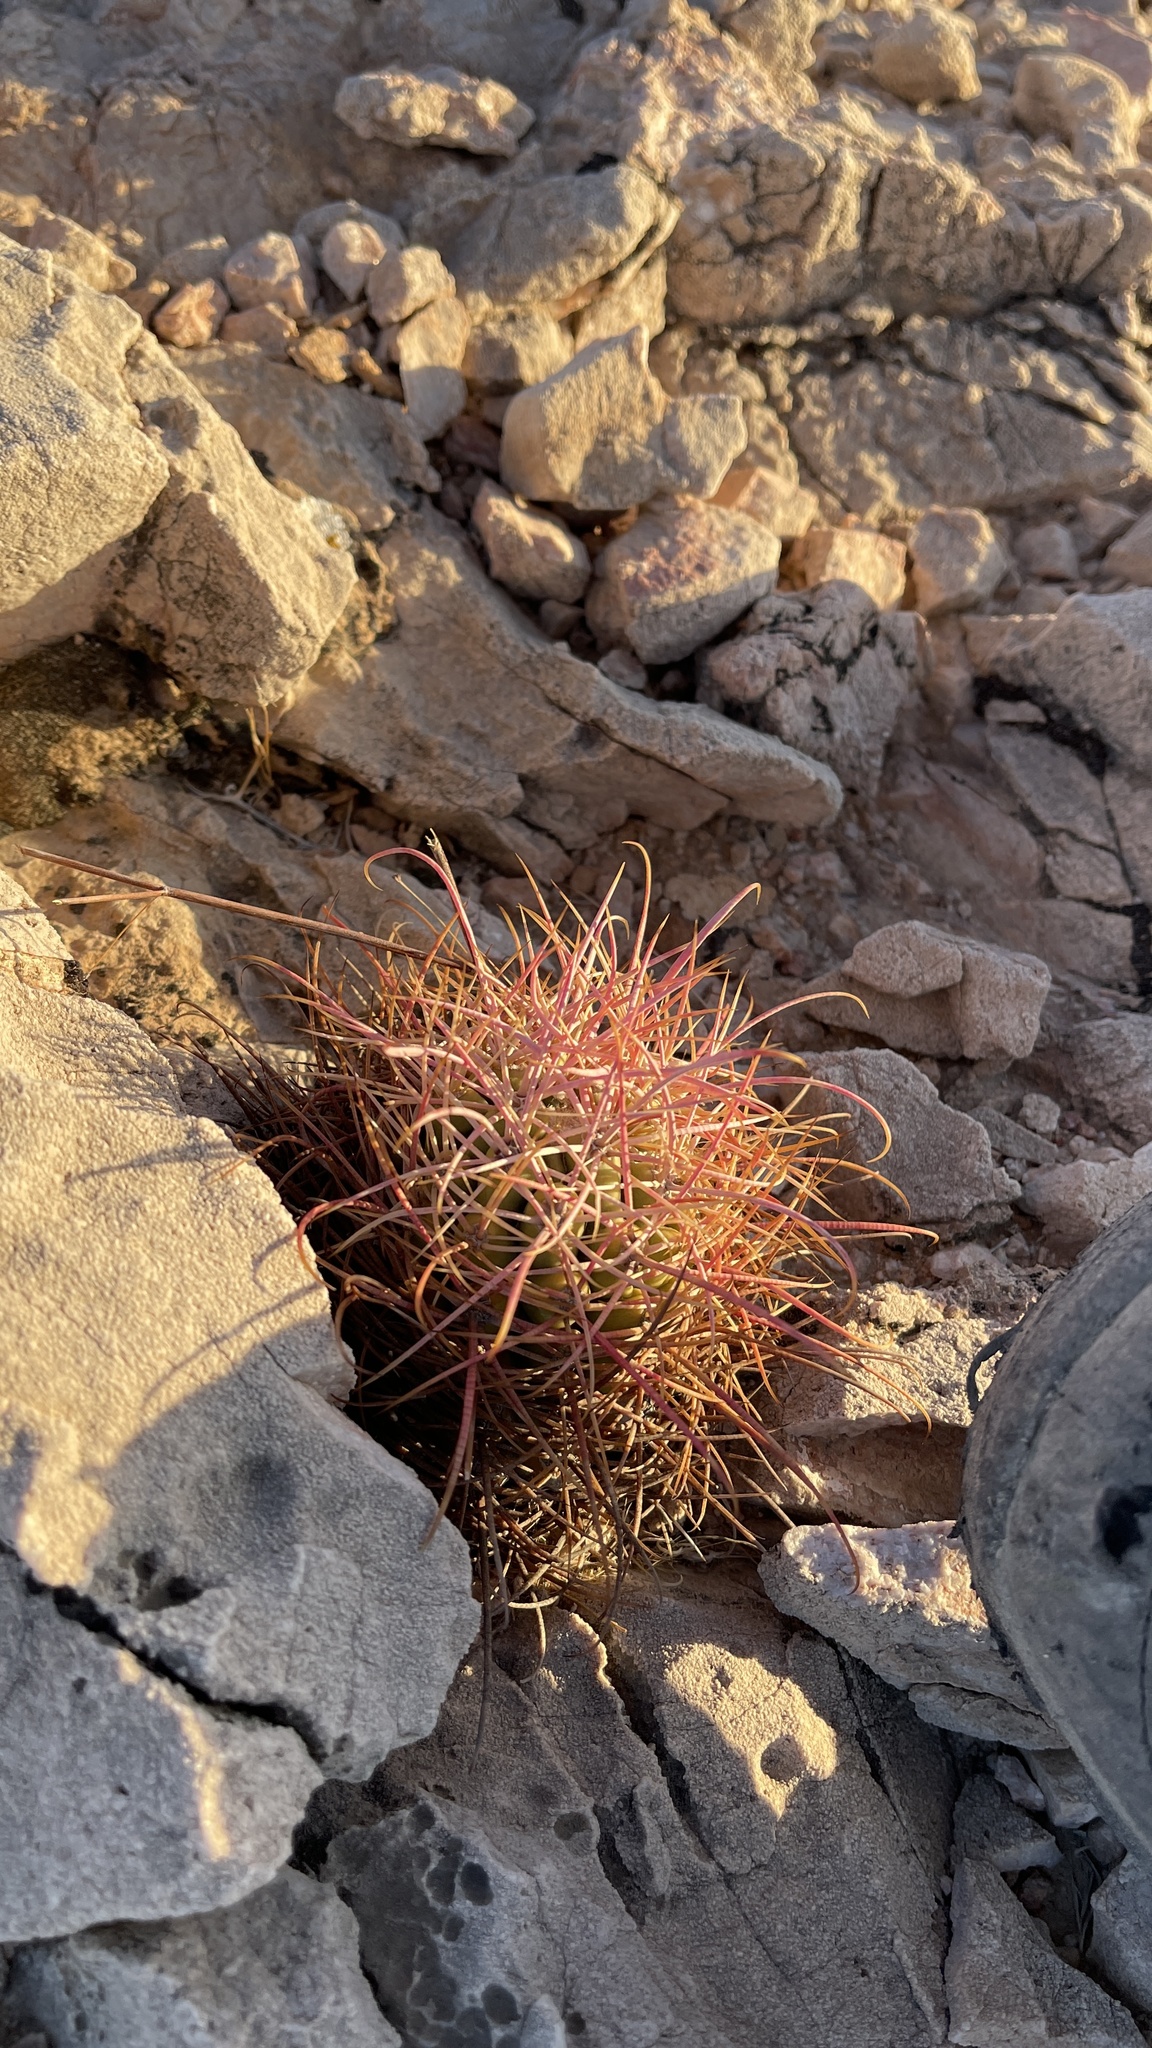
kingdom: Plantae
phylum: Tracheophyta
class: Magnoliopsida
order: Caryophyllales
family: Cactaceae
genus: Ferocactus
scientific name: Ferocactus cylindraceus
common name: California barrel cactus
